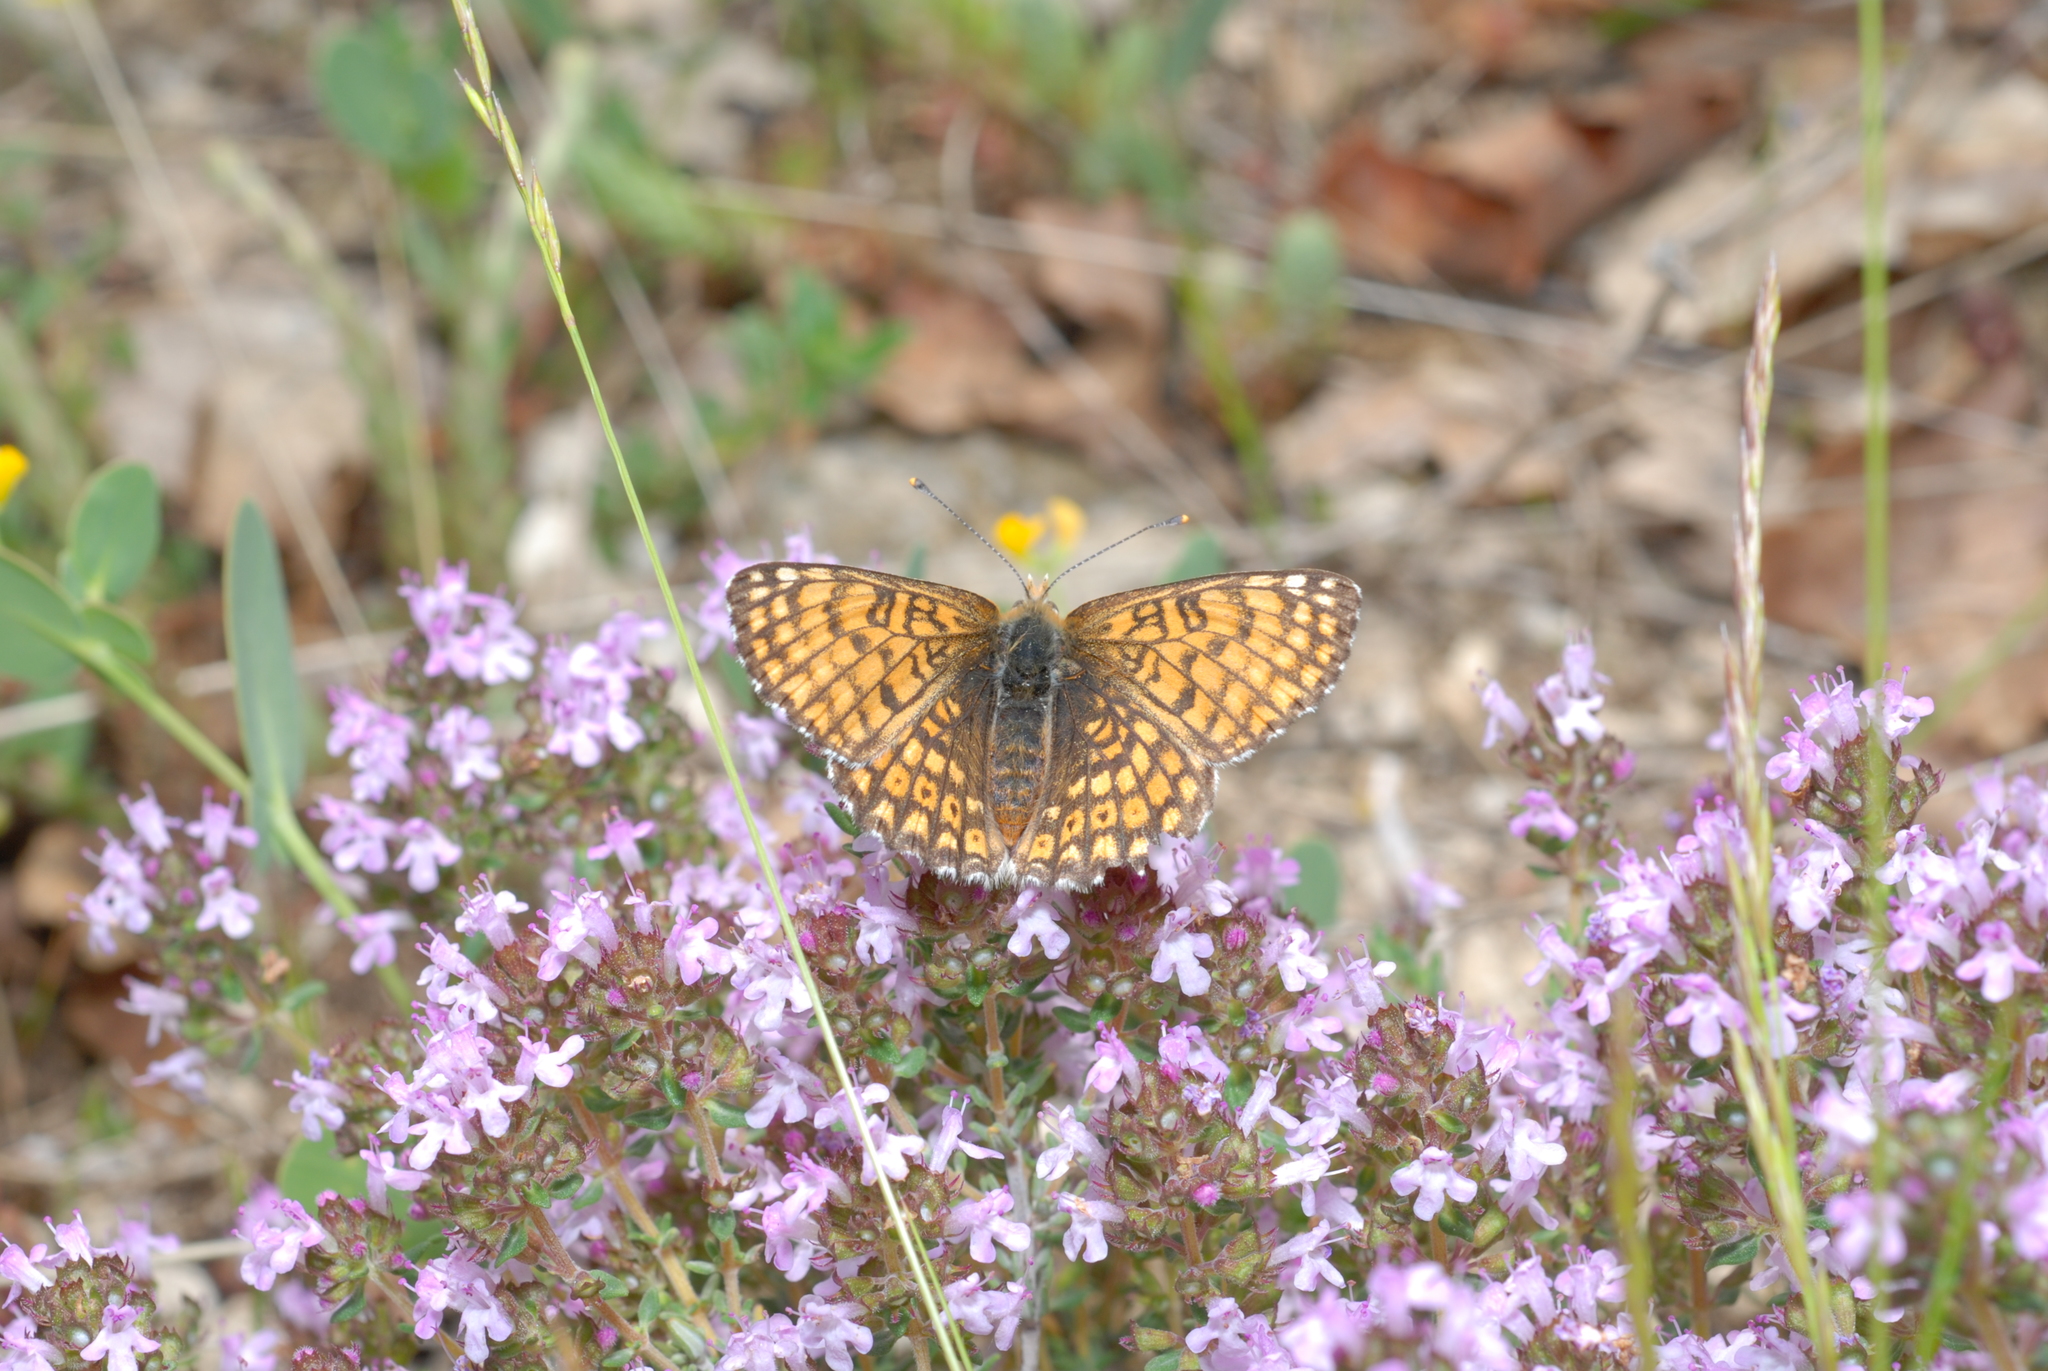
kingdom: Animalia
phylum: Arthropoda
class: Insecta
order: Lepidoptera
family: Nymphalidae
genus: Melitaea
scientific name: Melitaea cinxia
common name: Glanville fritillary
